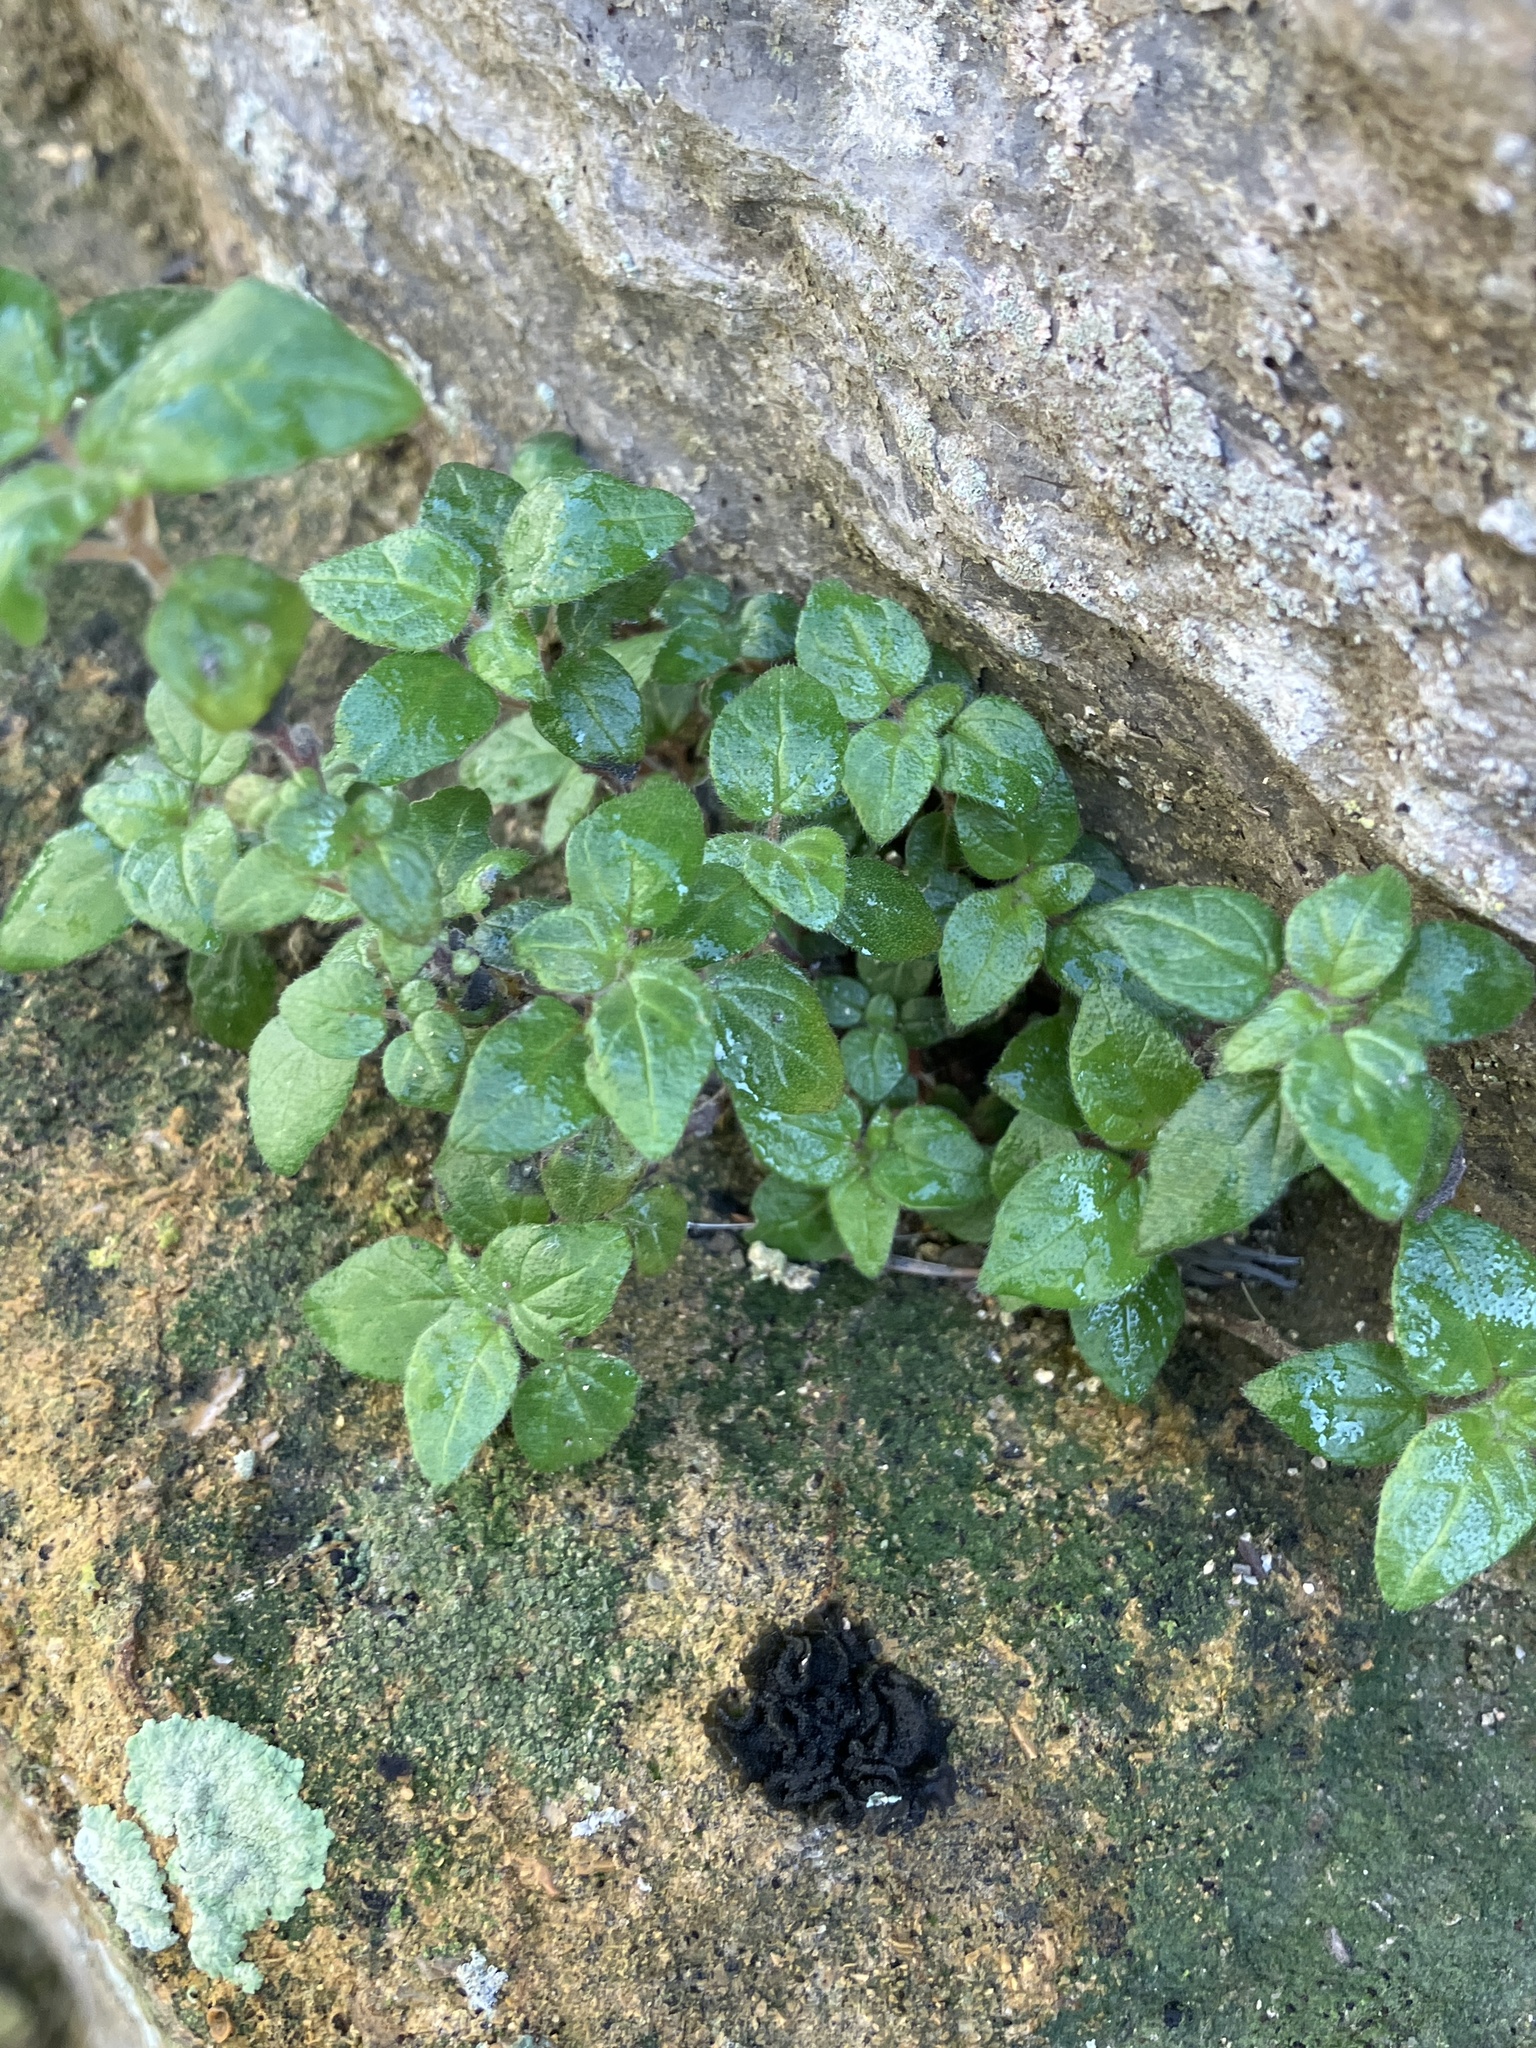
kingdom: Plantae
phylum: Tracheophyta
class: Magnoliopsida
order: Rosales
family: Urticaceae
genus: Parietaria
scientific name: Parietaria judaica
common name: Pellitory-of-the-wall
